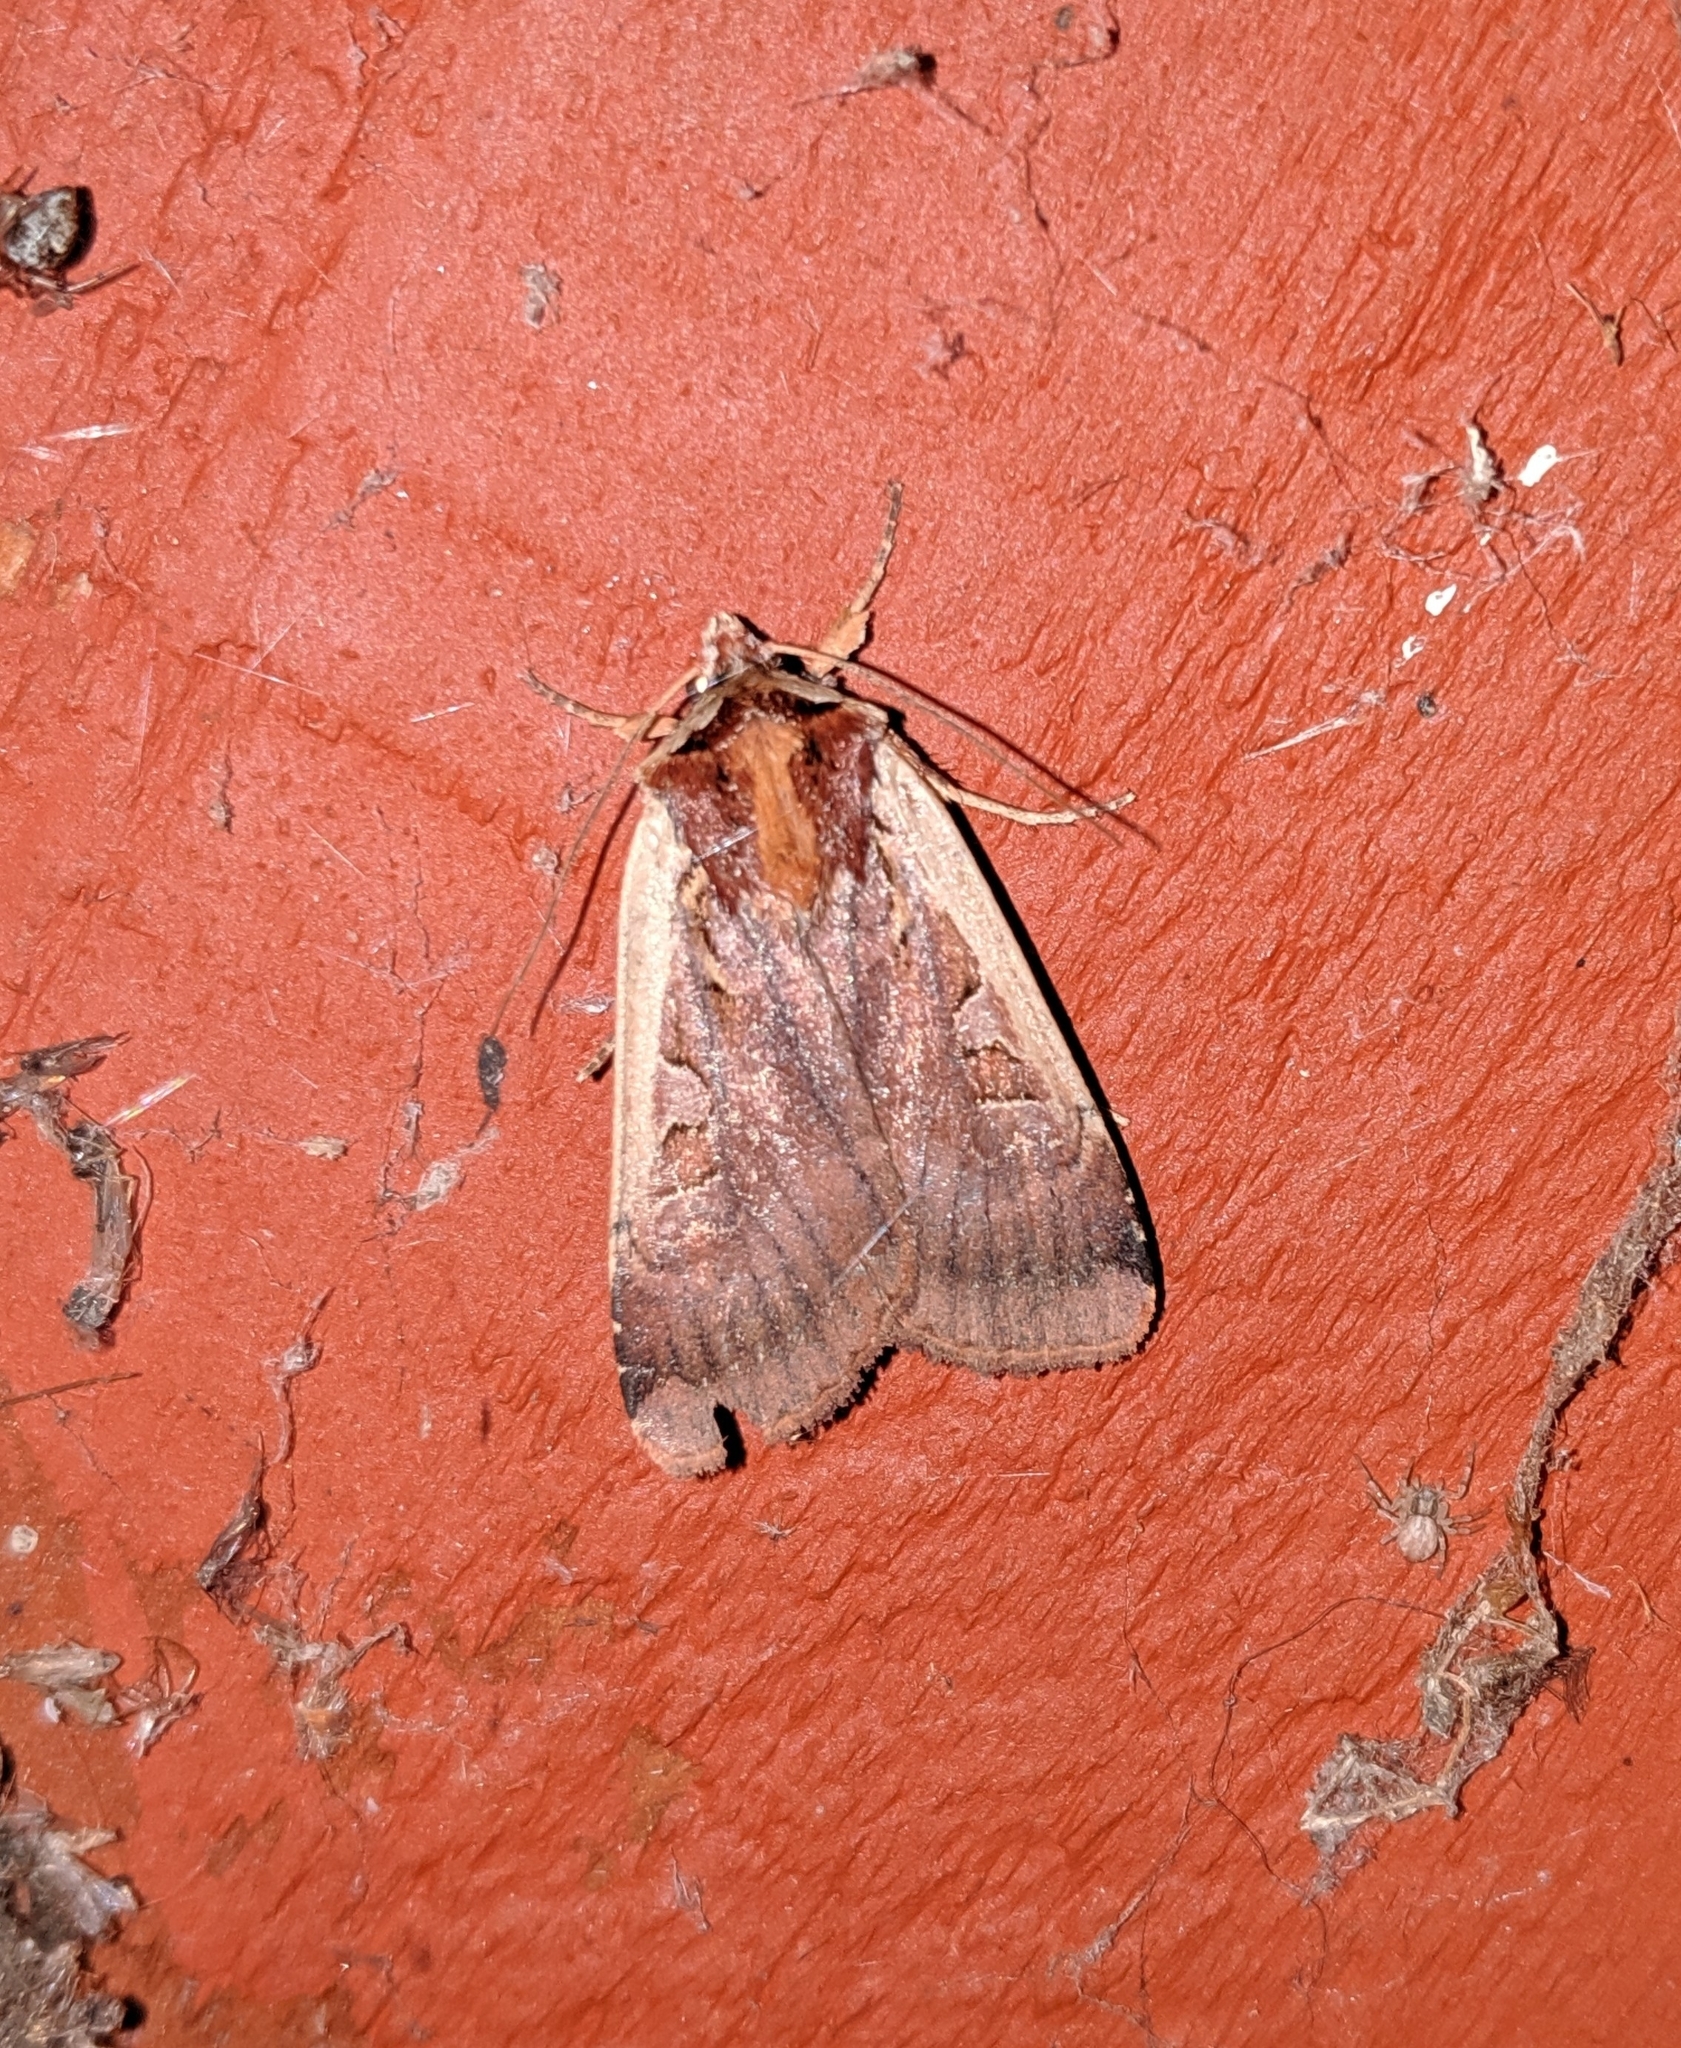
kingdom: Animalia
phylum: Arthropoda
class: Insecta
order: Lepidoptera
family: Noctuidae
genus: Parabagrotis
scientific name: Parabagrotis sulinaris
